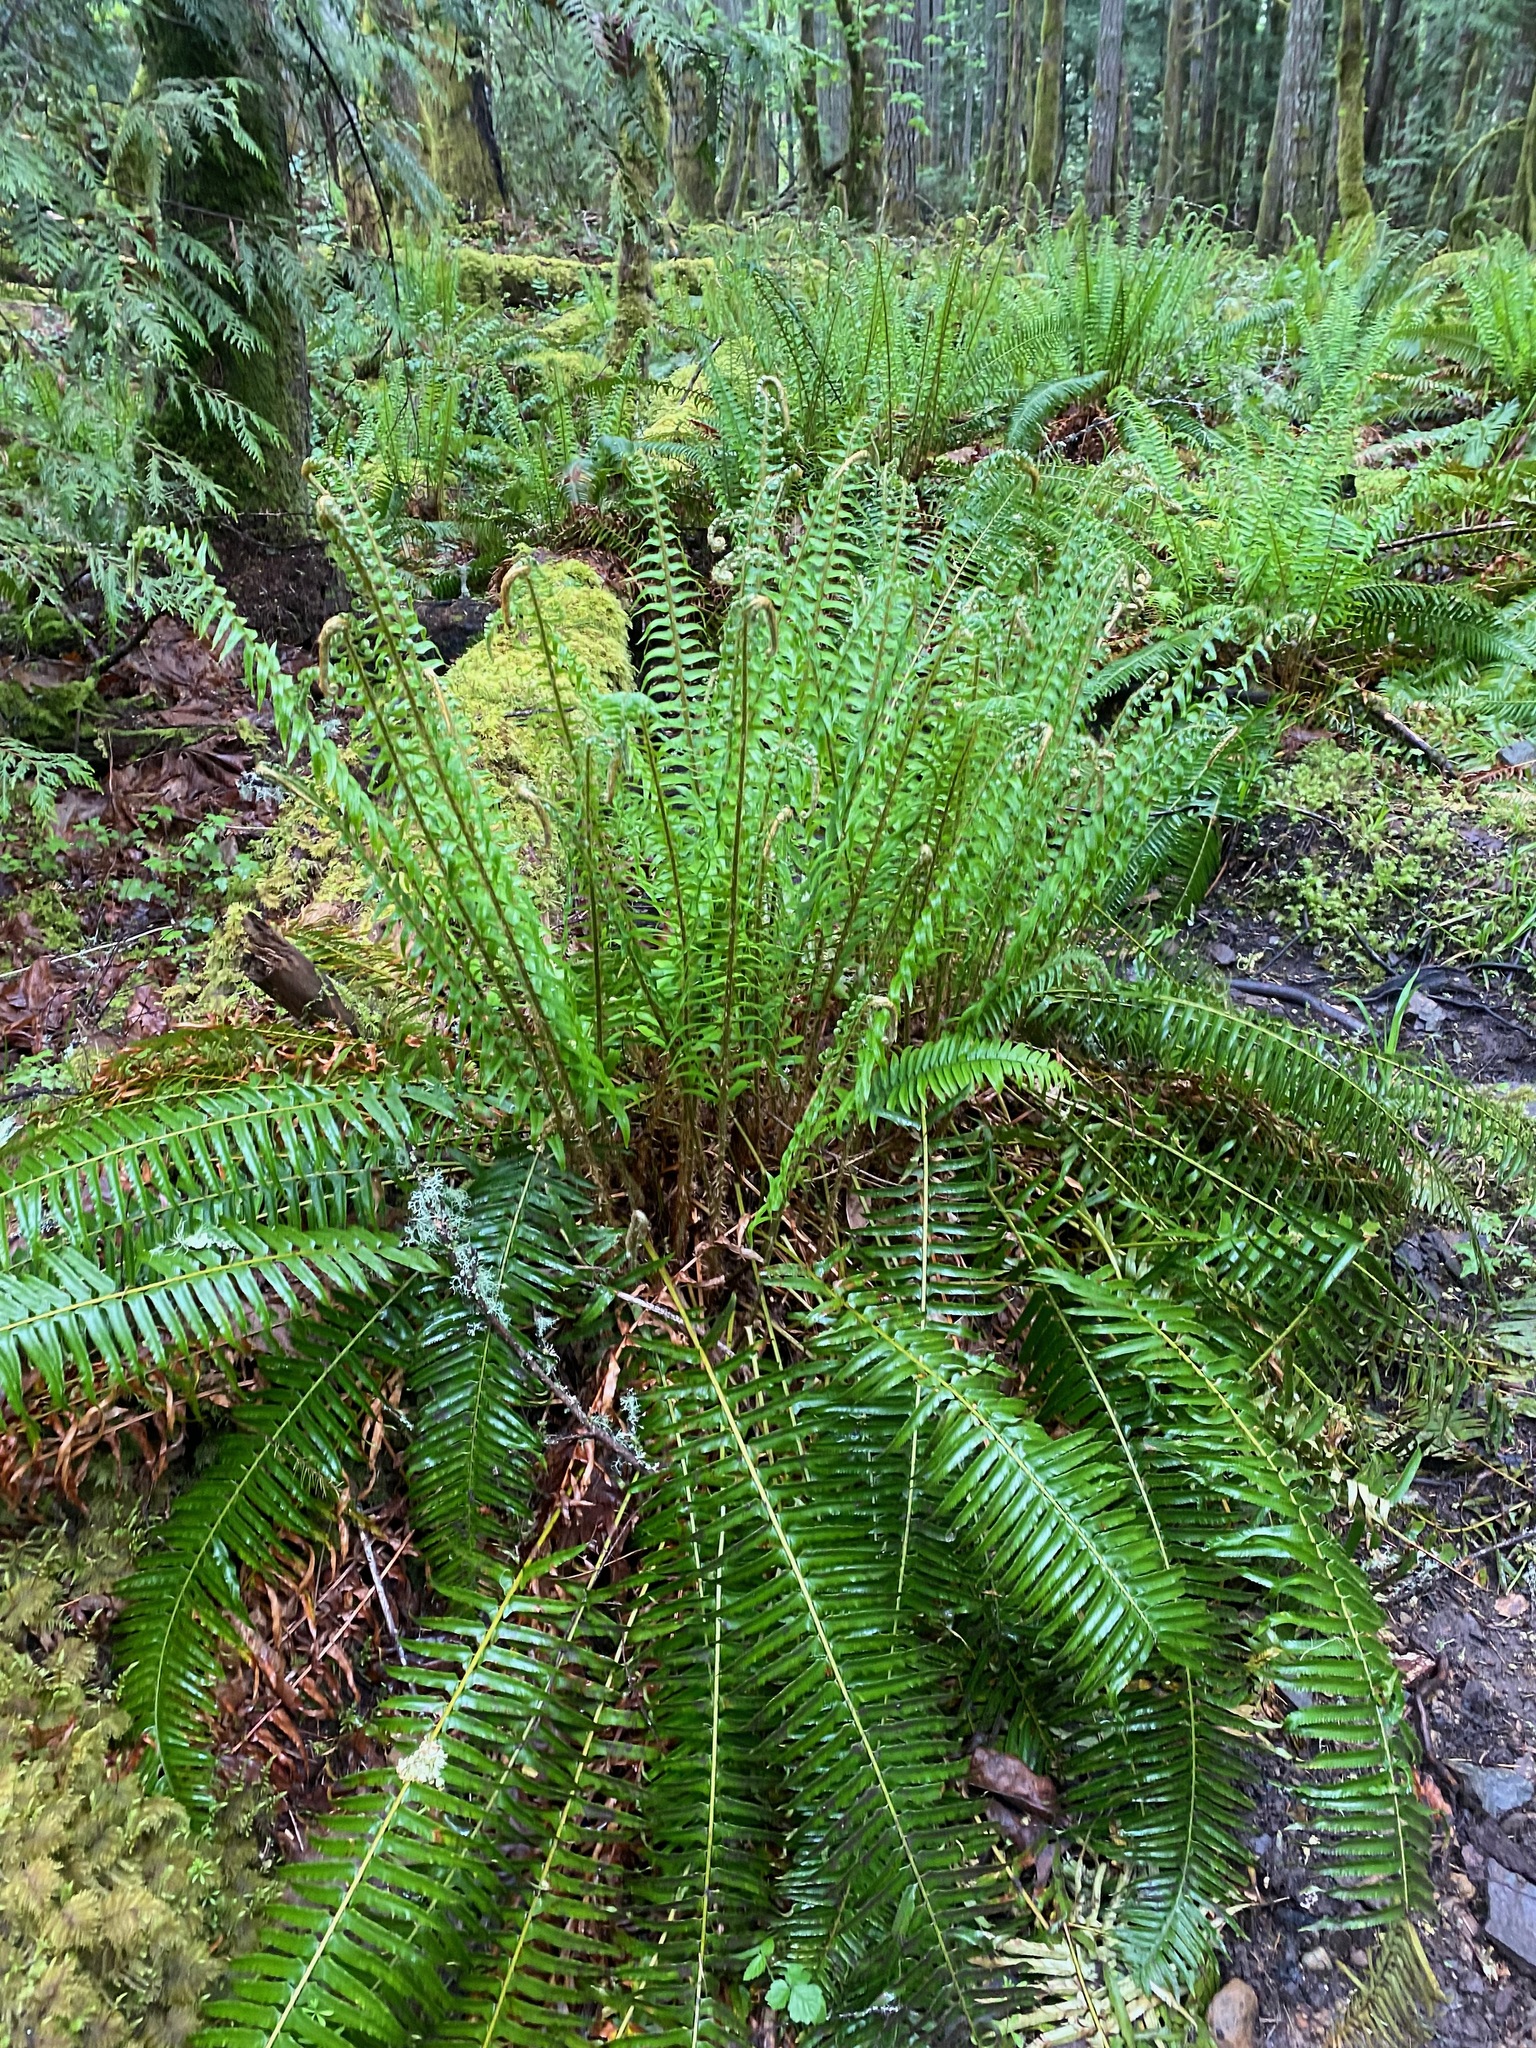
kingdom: Plantae
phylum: Tracheophyta
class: Polypodiopsida
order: Polypodiales
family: Dryopteridaceae
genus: Polystichum
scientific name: Polystichum munitum
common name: Western sword-fern
